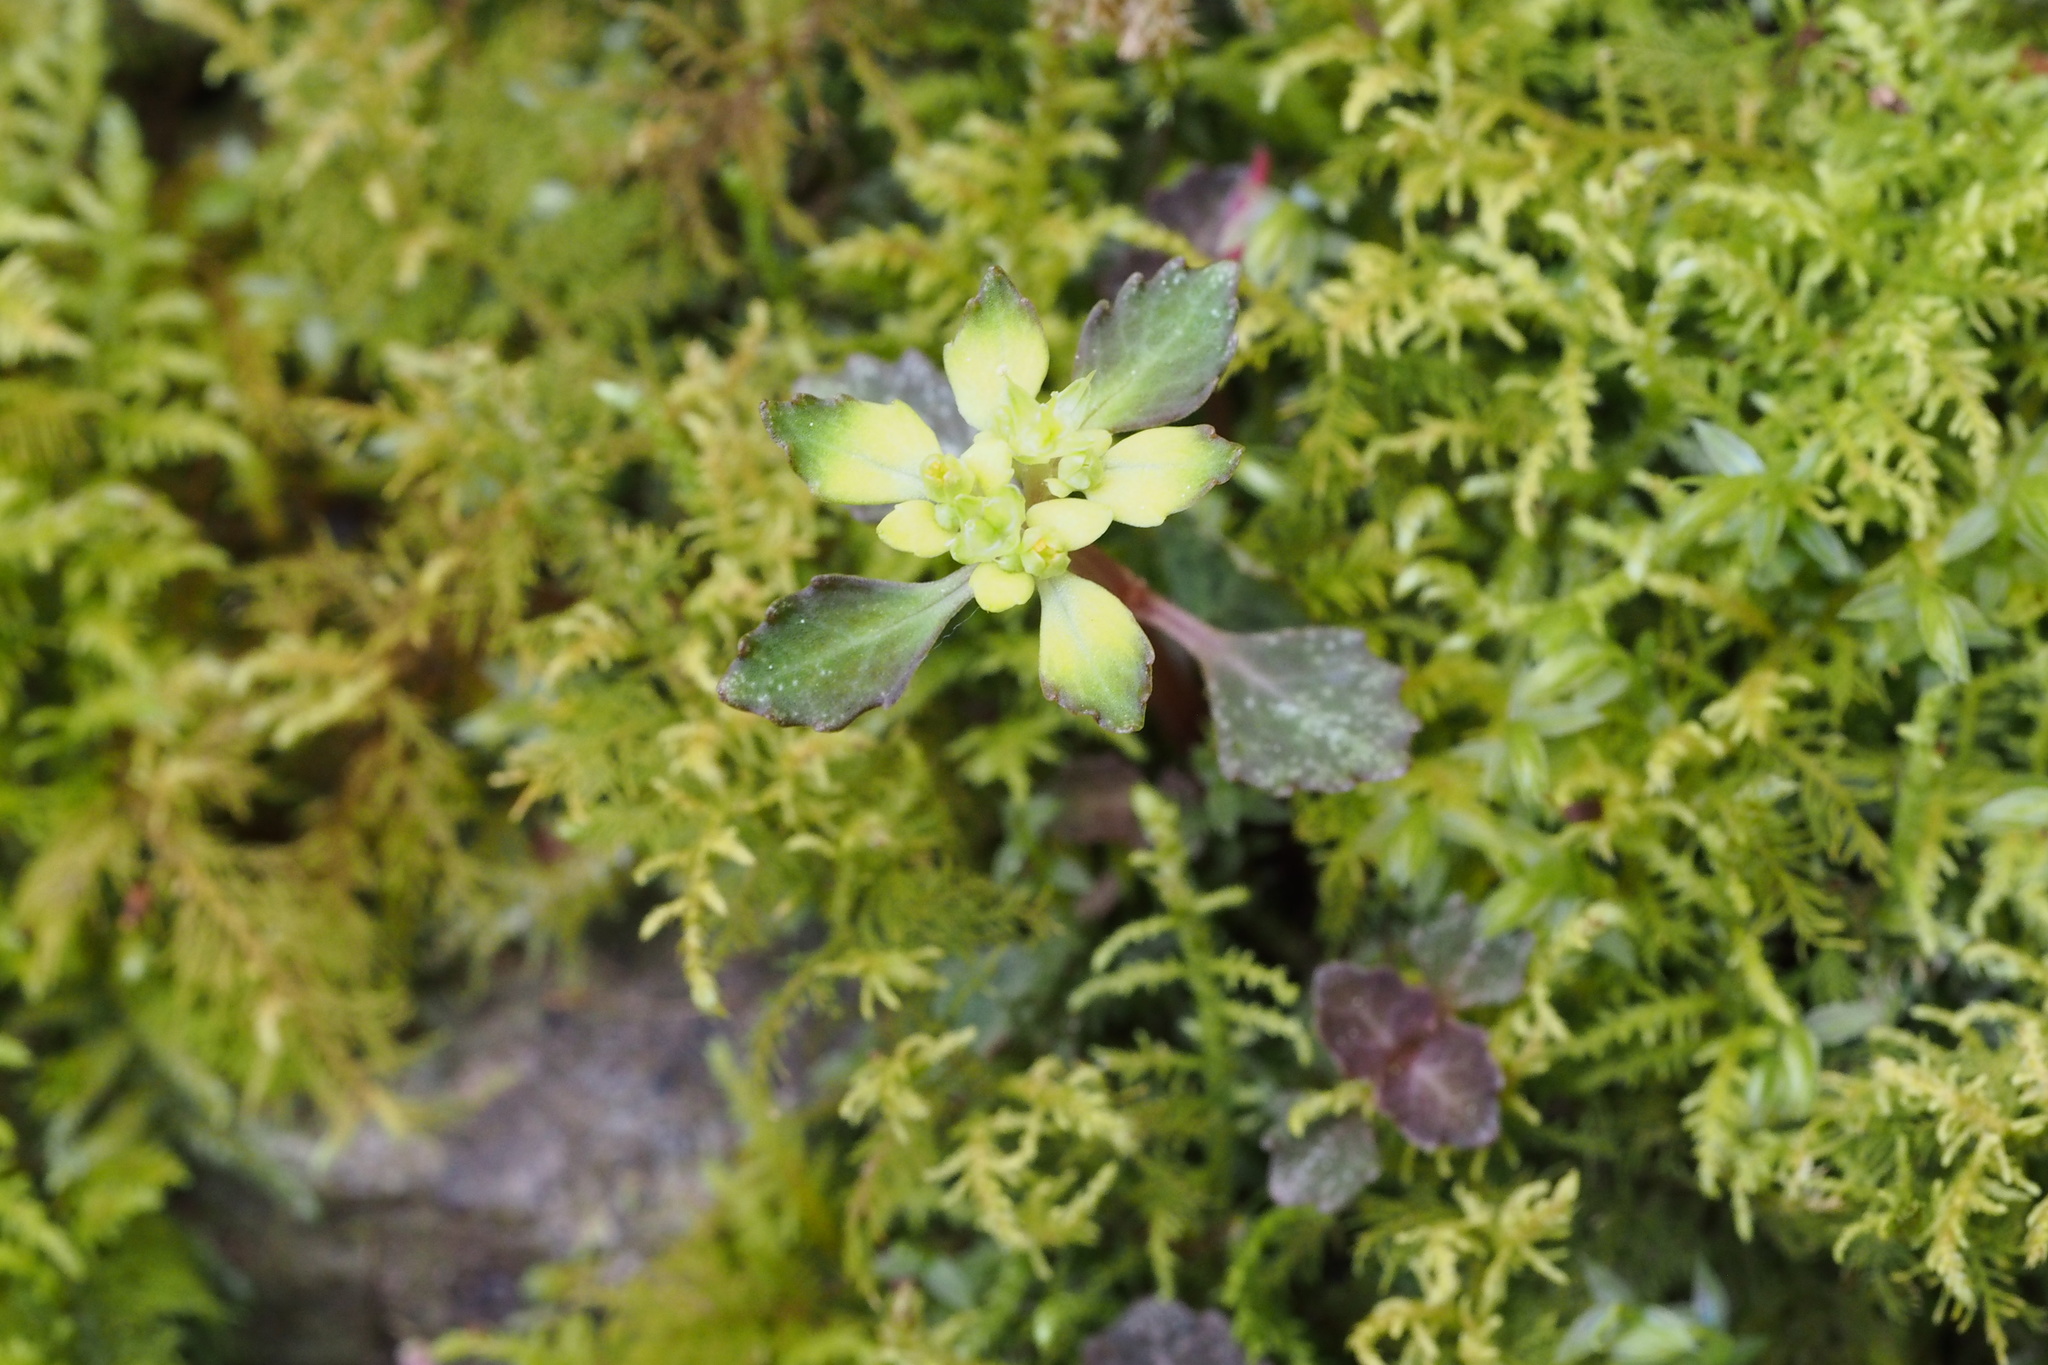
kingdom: Plantae
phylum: Tracheophyta
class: Magnoliopsida
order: Saxifragales
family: Saxifragaceae
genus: Chrysosplenium
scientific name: Chrysosplenium macrostemon
